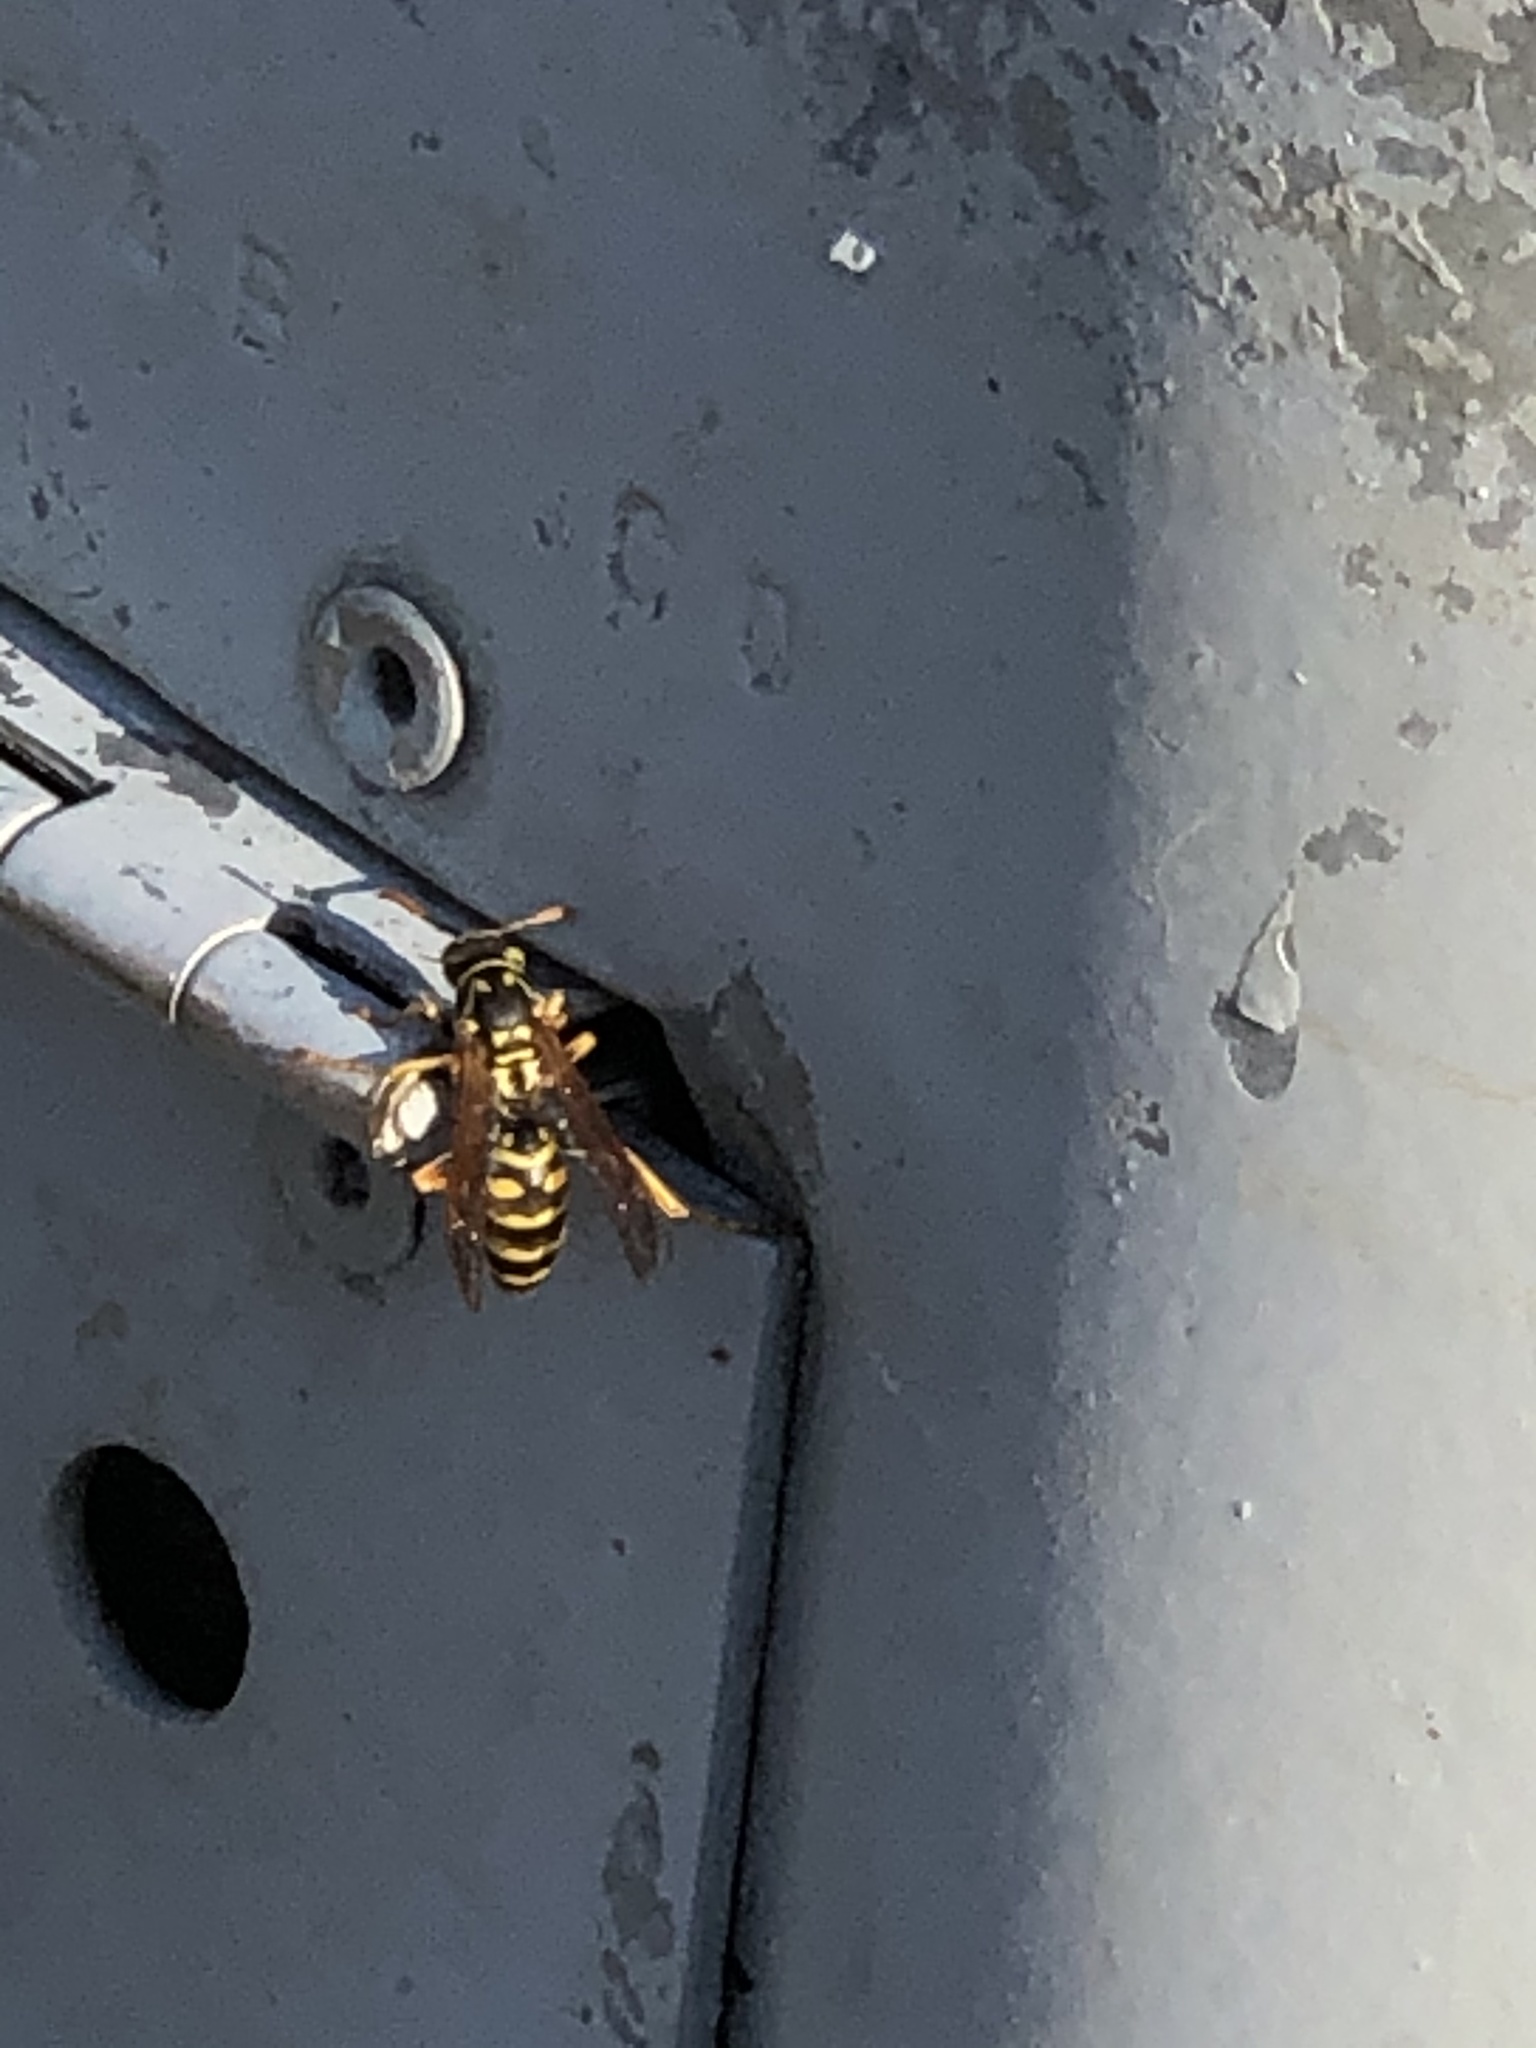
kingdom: Animalia
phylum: Arthropoda
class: Insecta
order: Hymenoptera
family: Eumenidae
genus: Polistes
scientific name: Polistes dominula
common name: Paper wasp
